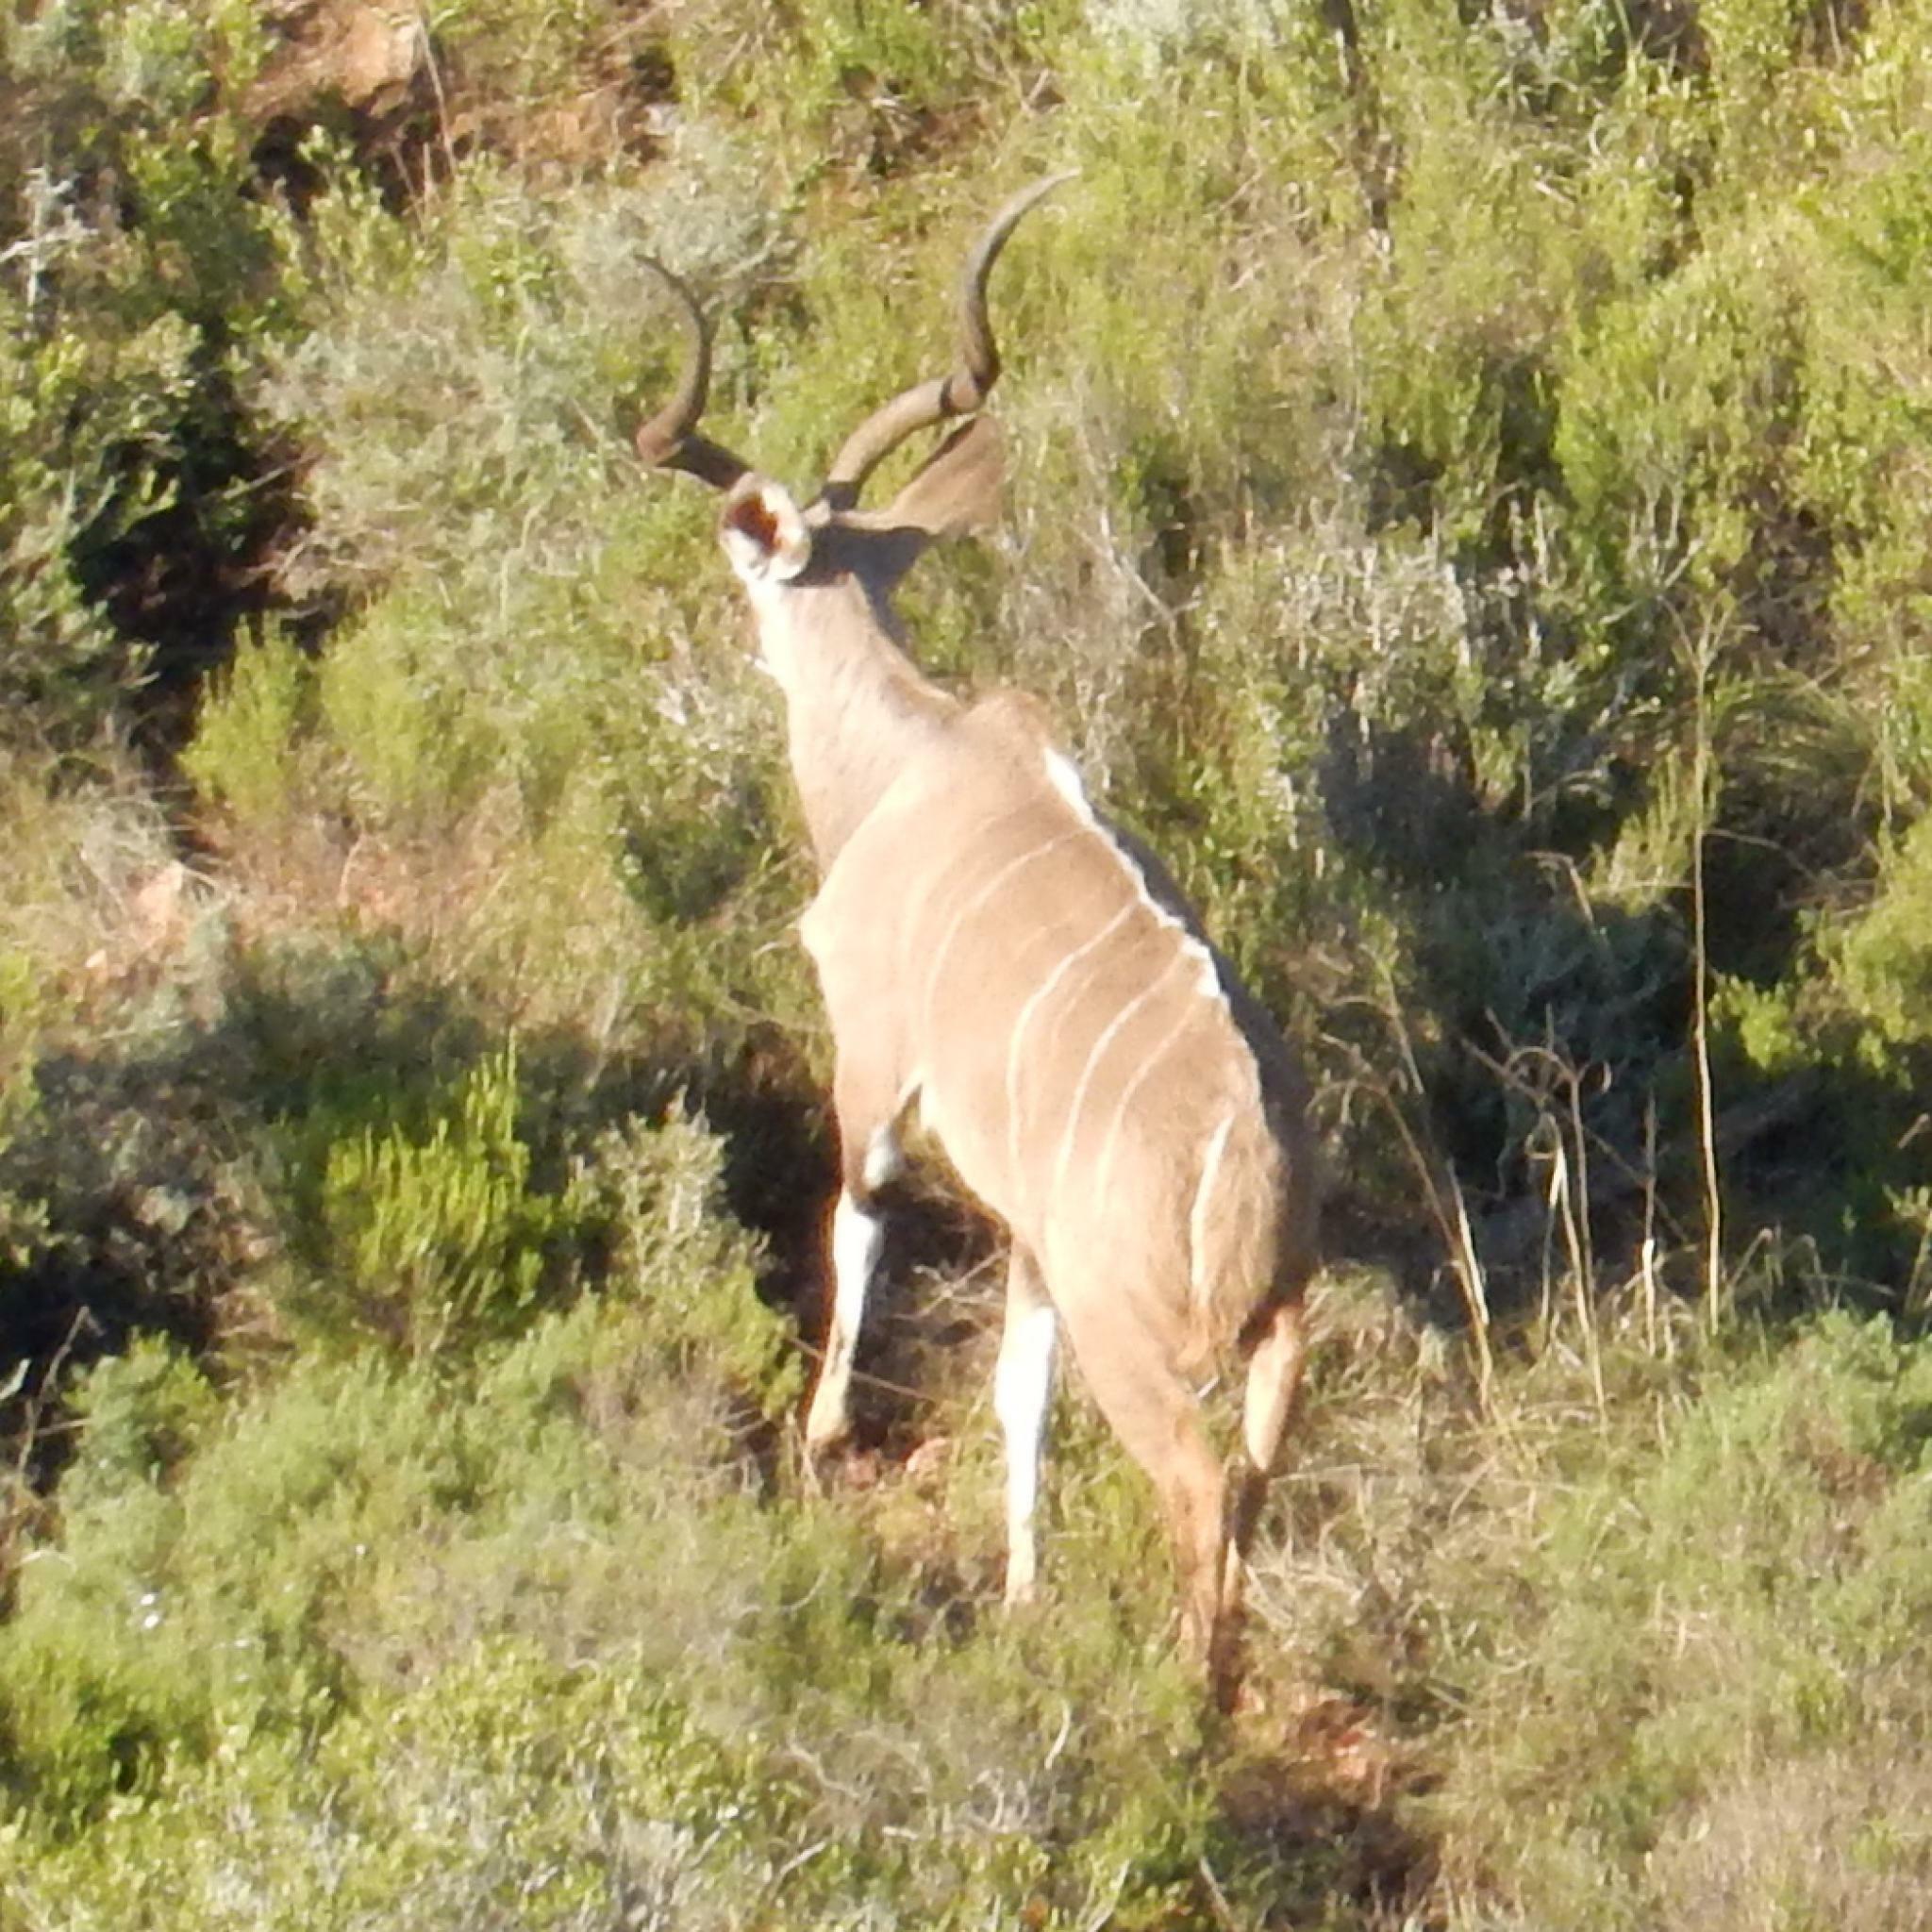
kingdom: Animalia
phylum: Chordata
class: Mammalia
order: Artiodactyla
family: Bovidae
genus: Tragelaphus
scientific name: Tragelaphus strepsiceros
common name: Greater kudu
